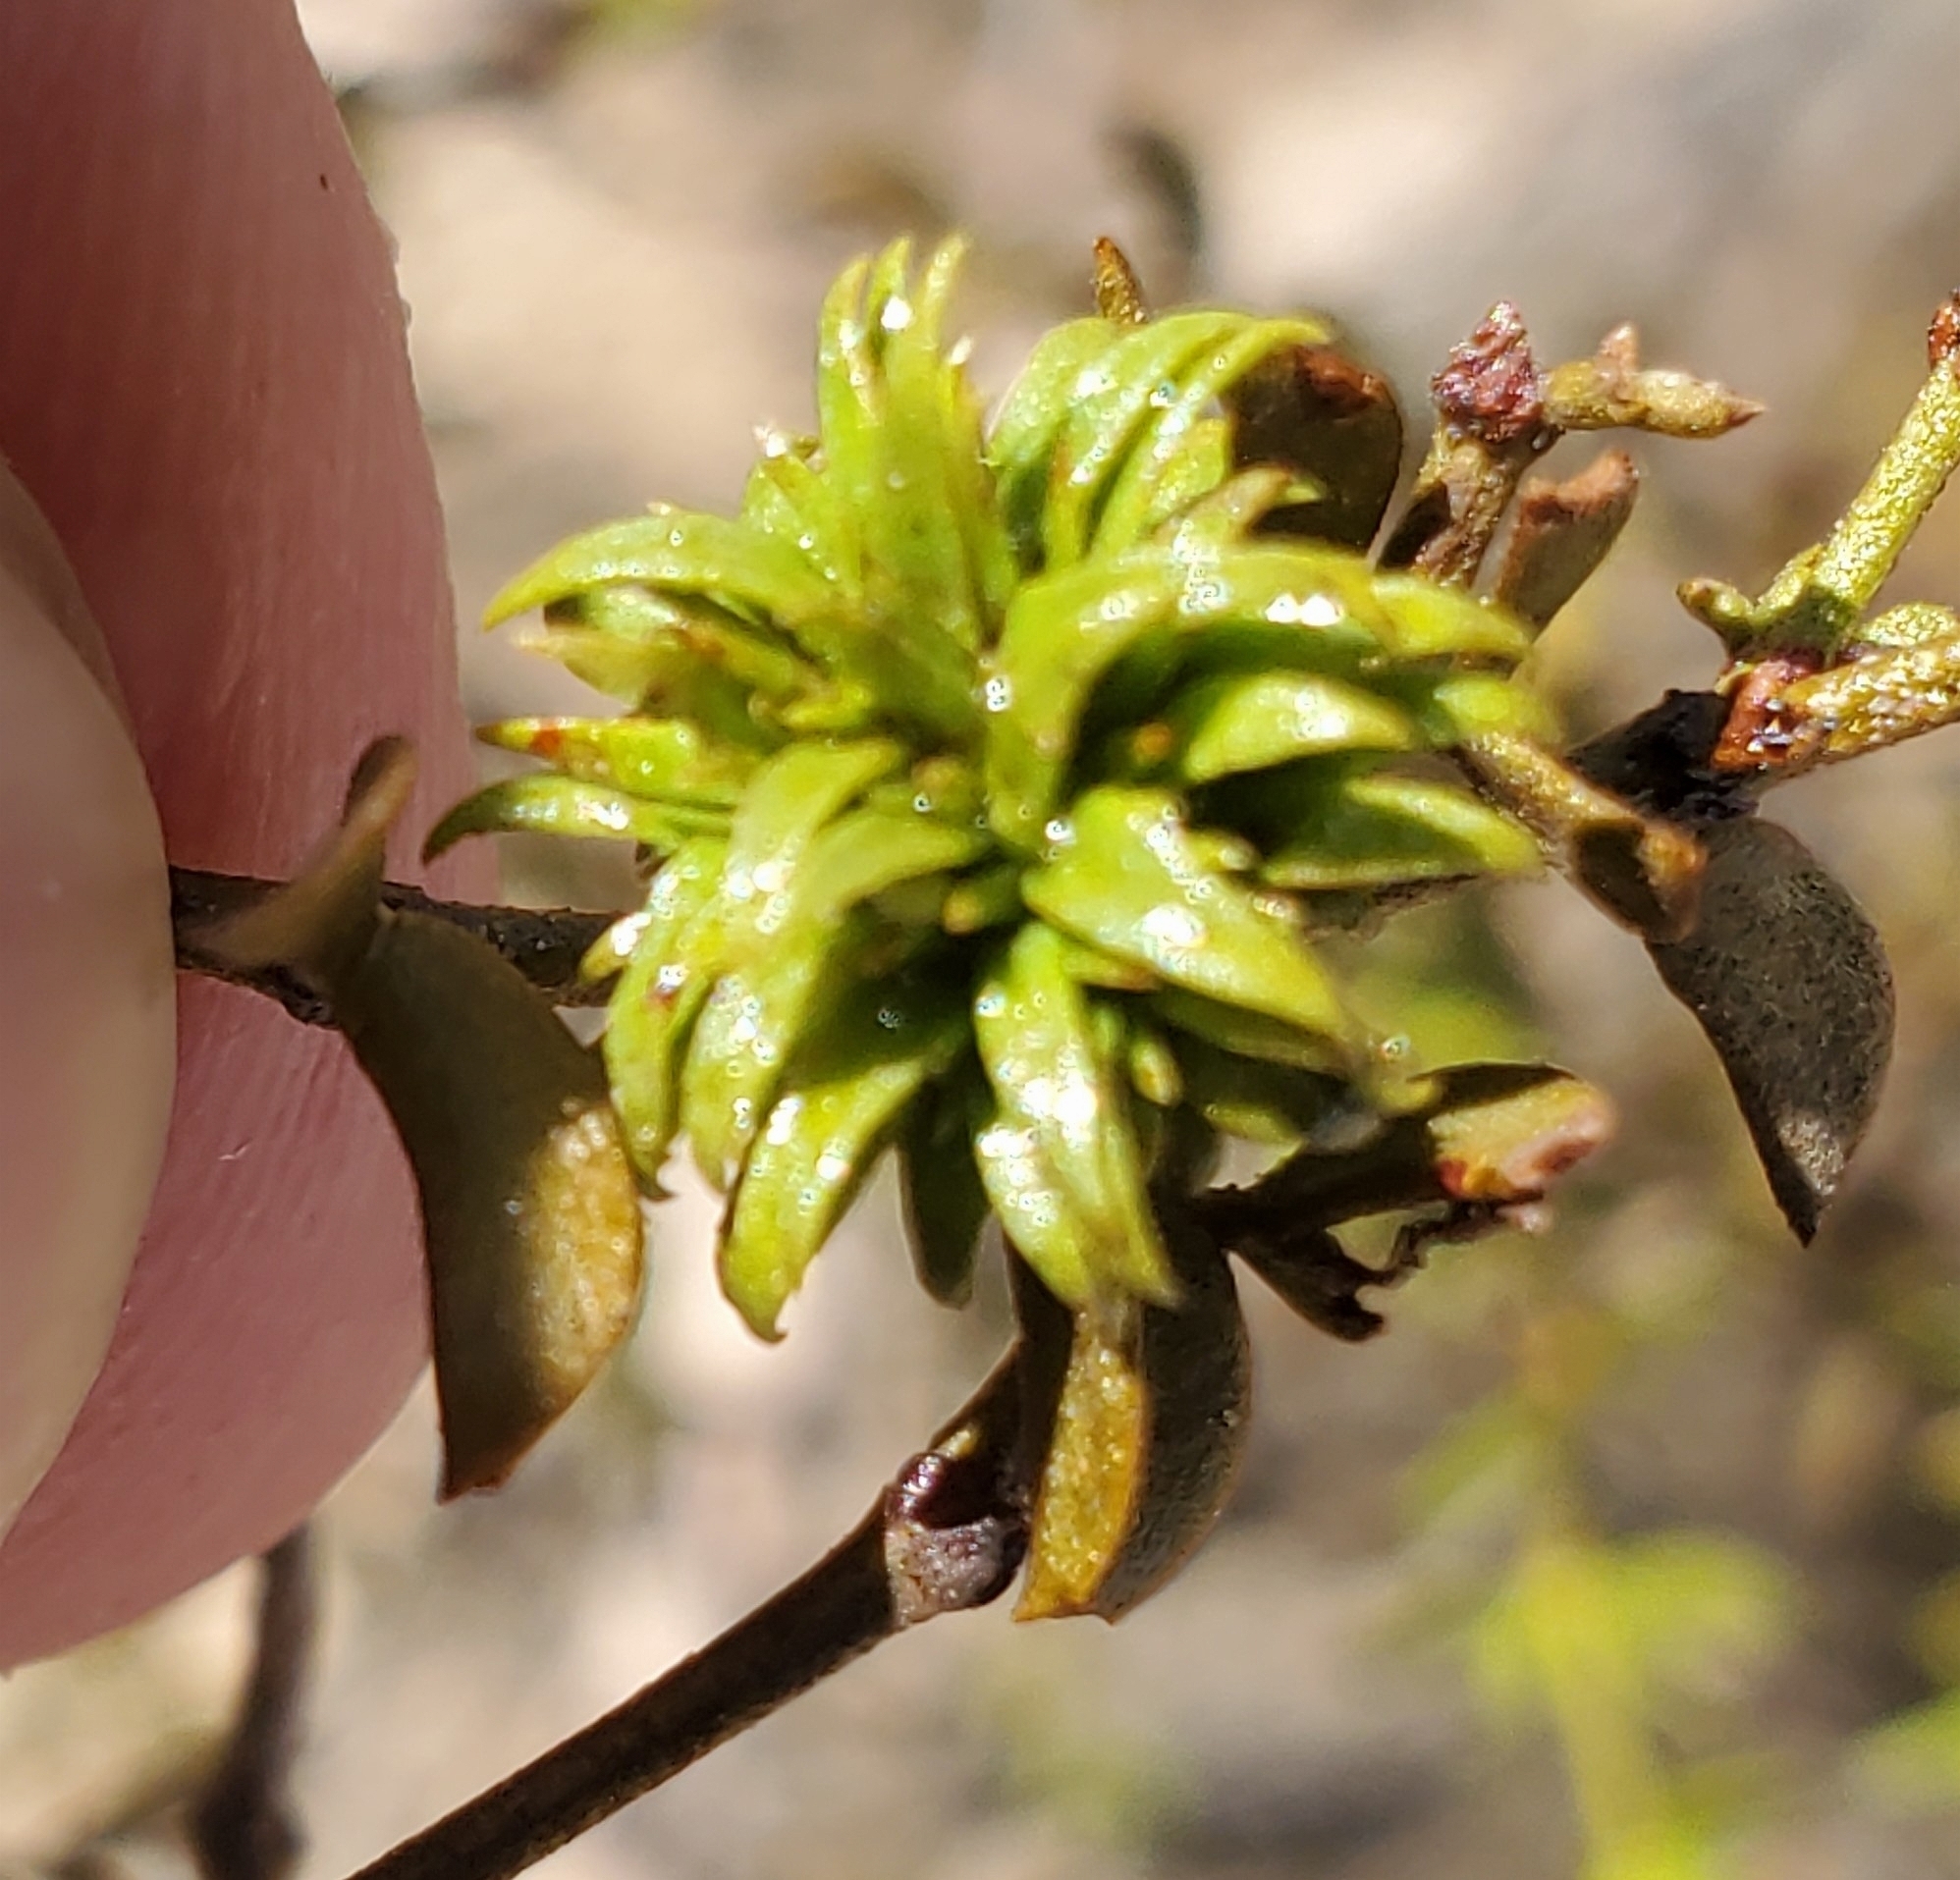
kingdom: Animalia
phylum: Arthropoda
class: Insecta
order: Diptera
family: Cecidomyiidae
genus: Asphondylia
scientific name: Asphondylia rosetta
